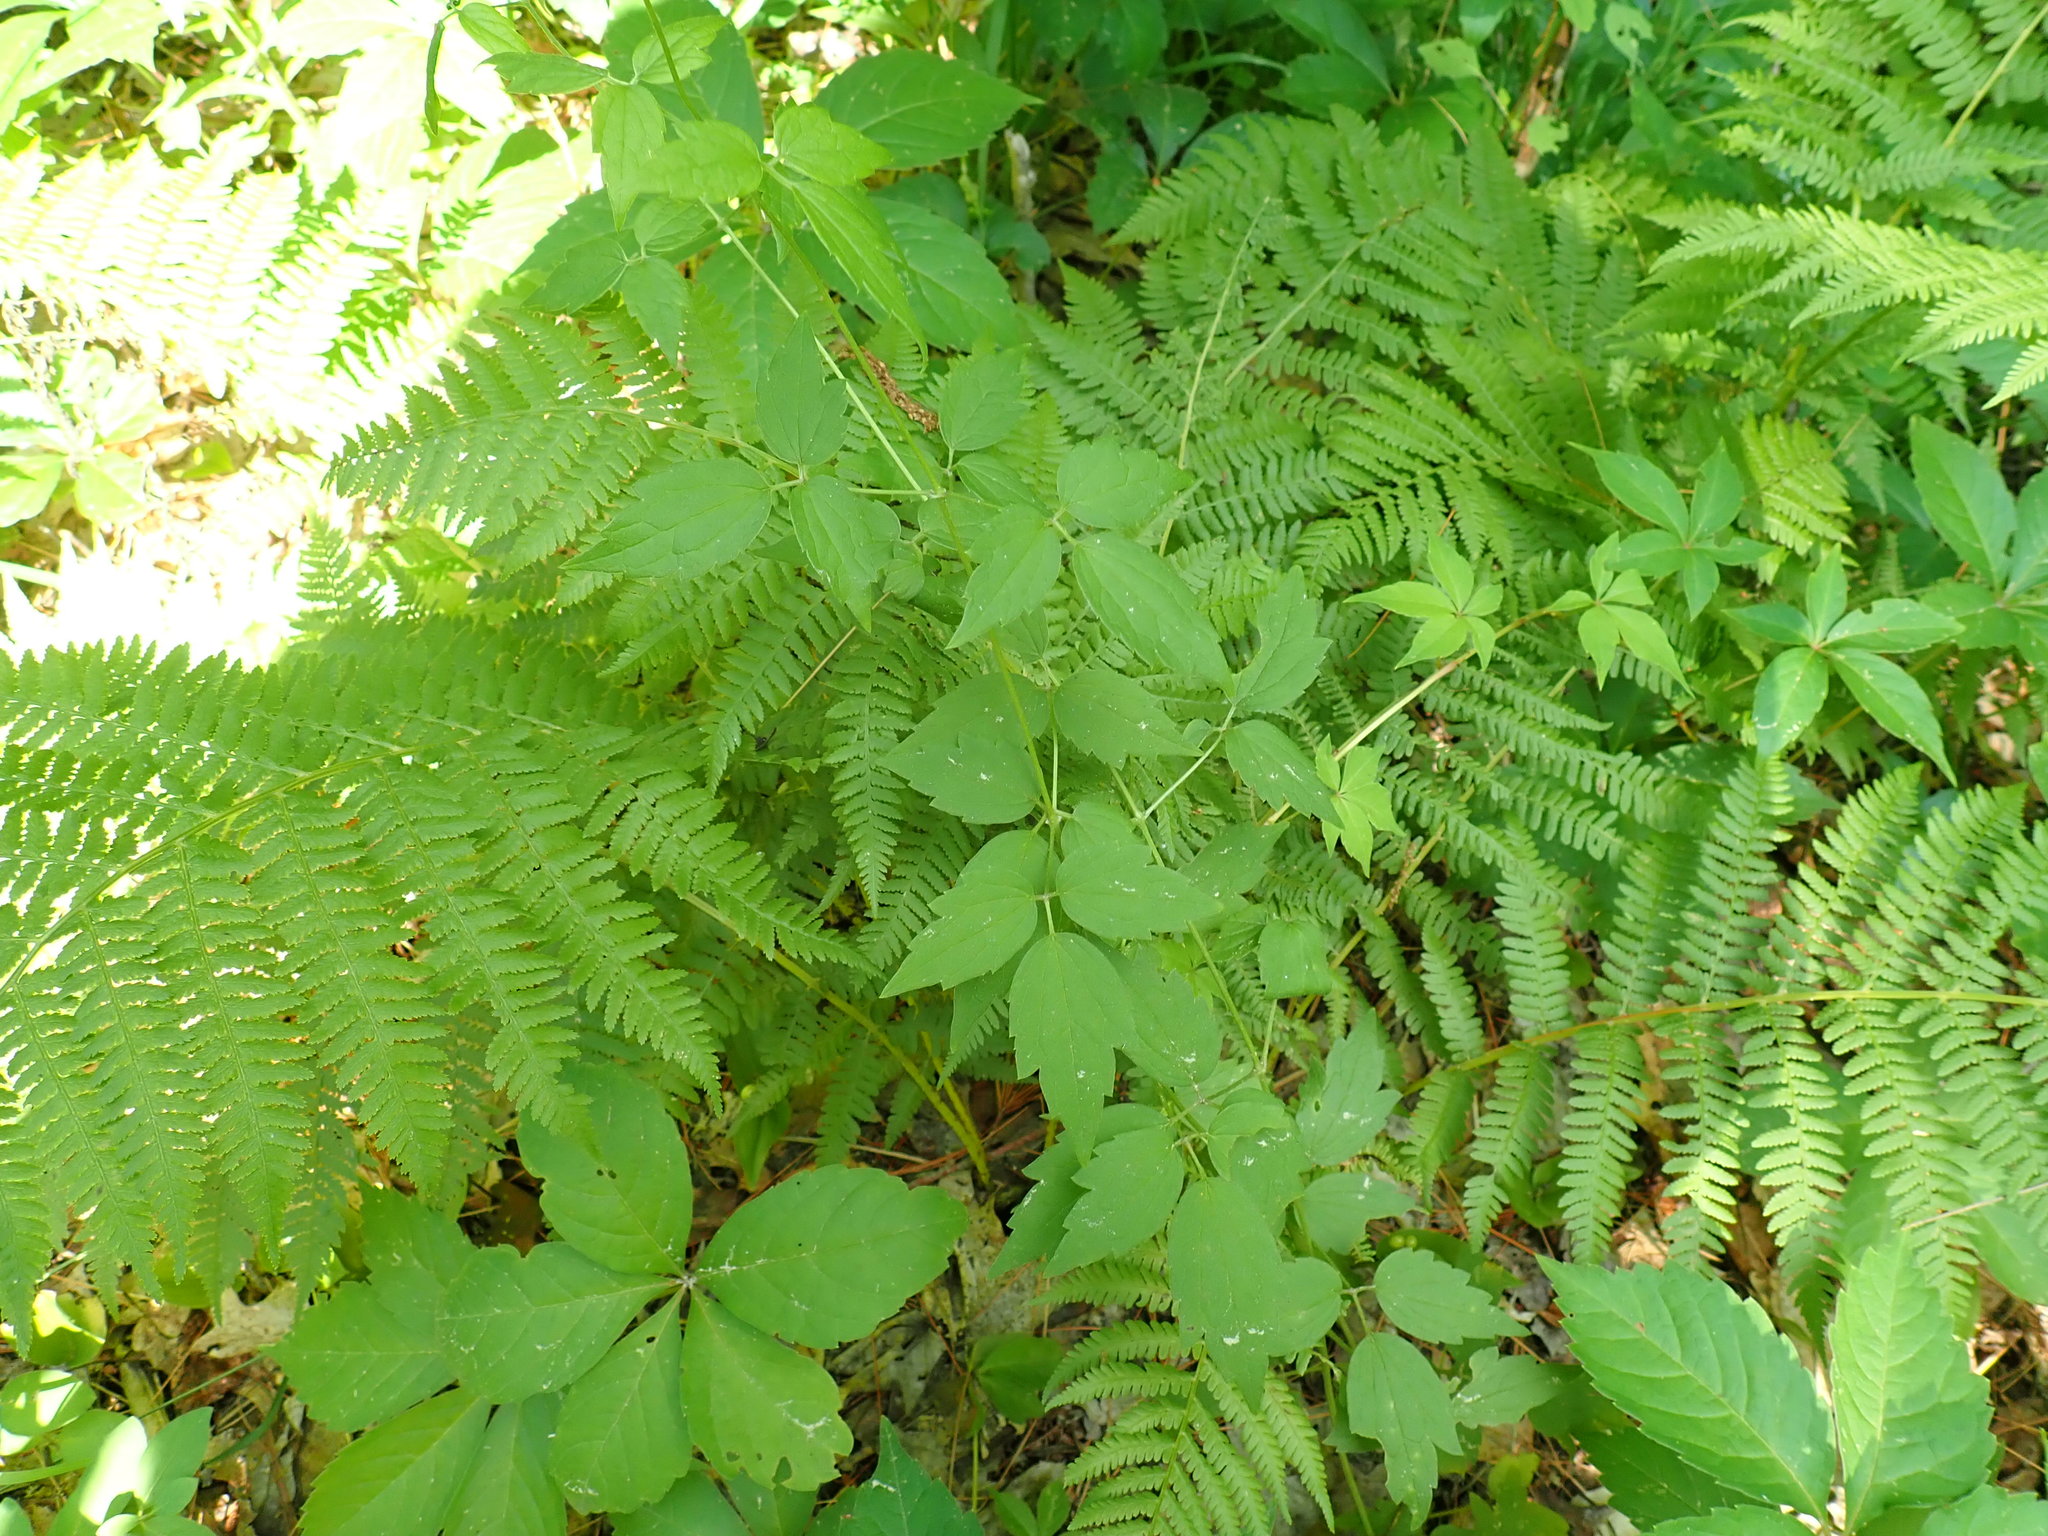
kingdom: Plantae
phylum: Tracheophyta
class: Magnoliopsida
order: Ranunculales
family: Ranunculaceae
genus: Clematis
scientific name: Clematis virginiana
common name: Virgin's-bower
